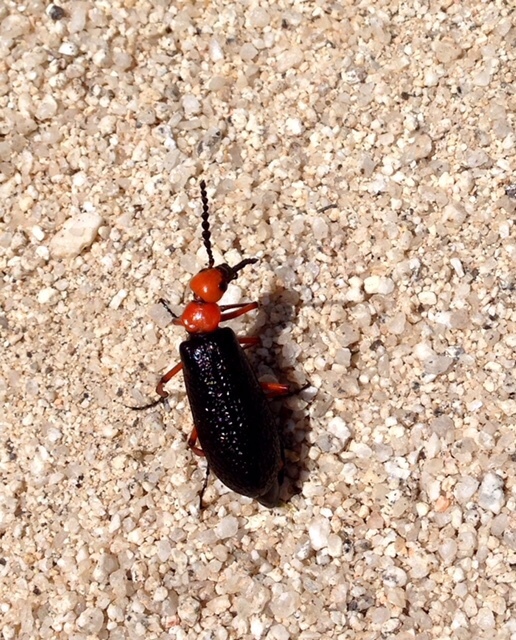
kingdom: Animalia
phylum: Arthropoda
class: Insecta
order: Coleoptera
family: Meloidae
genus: Lytta
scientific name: Lytta magister
